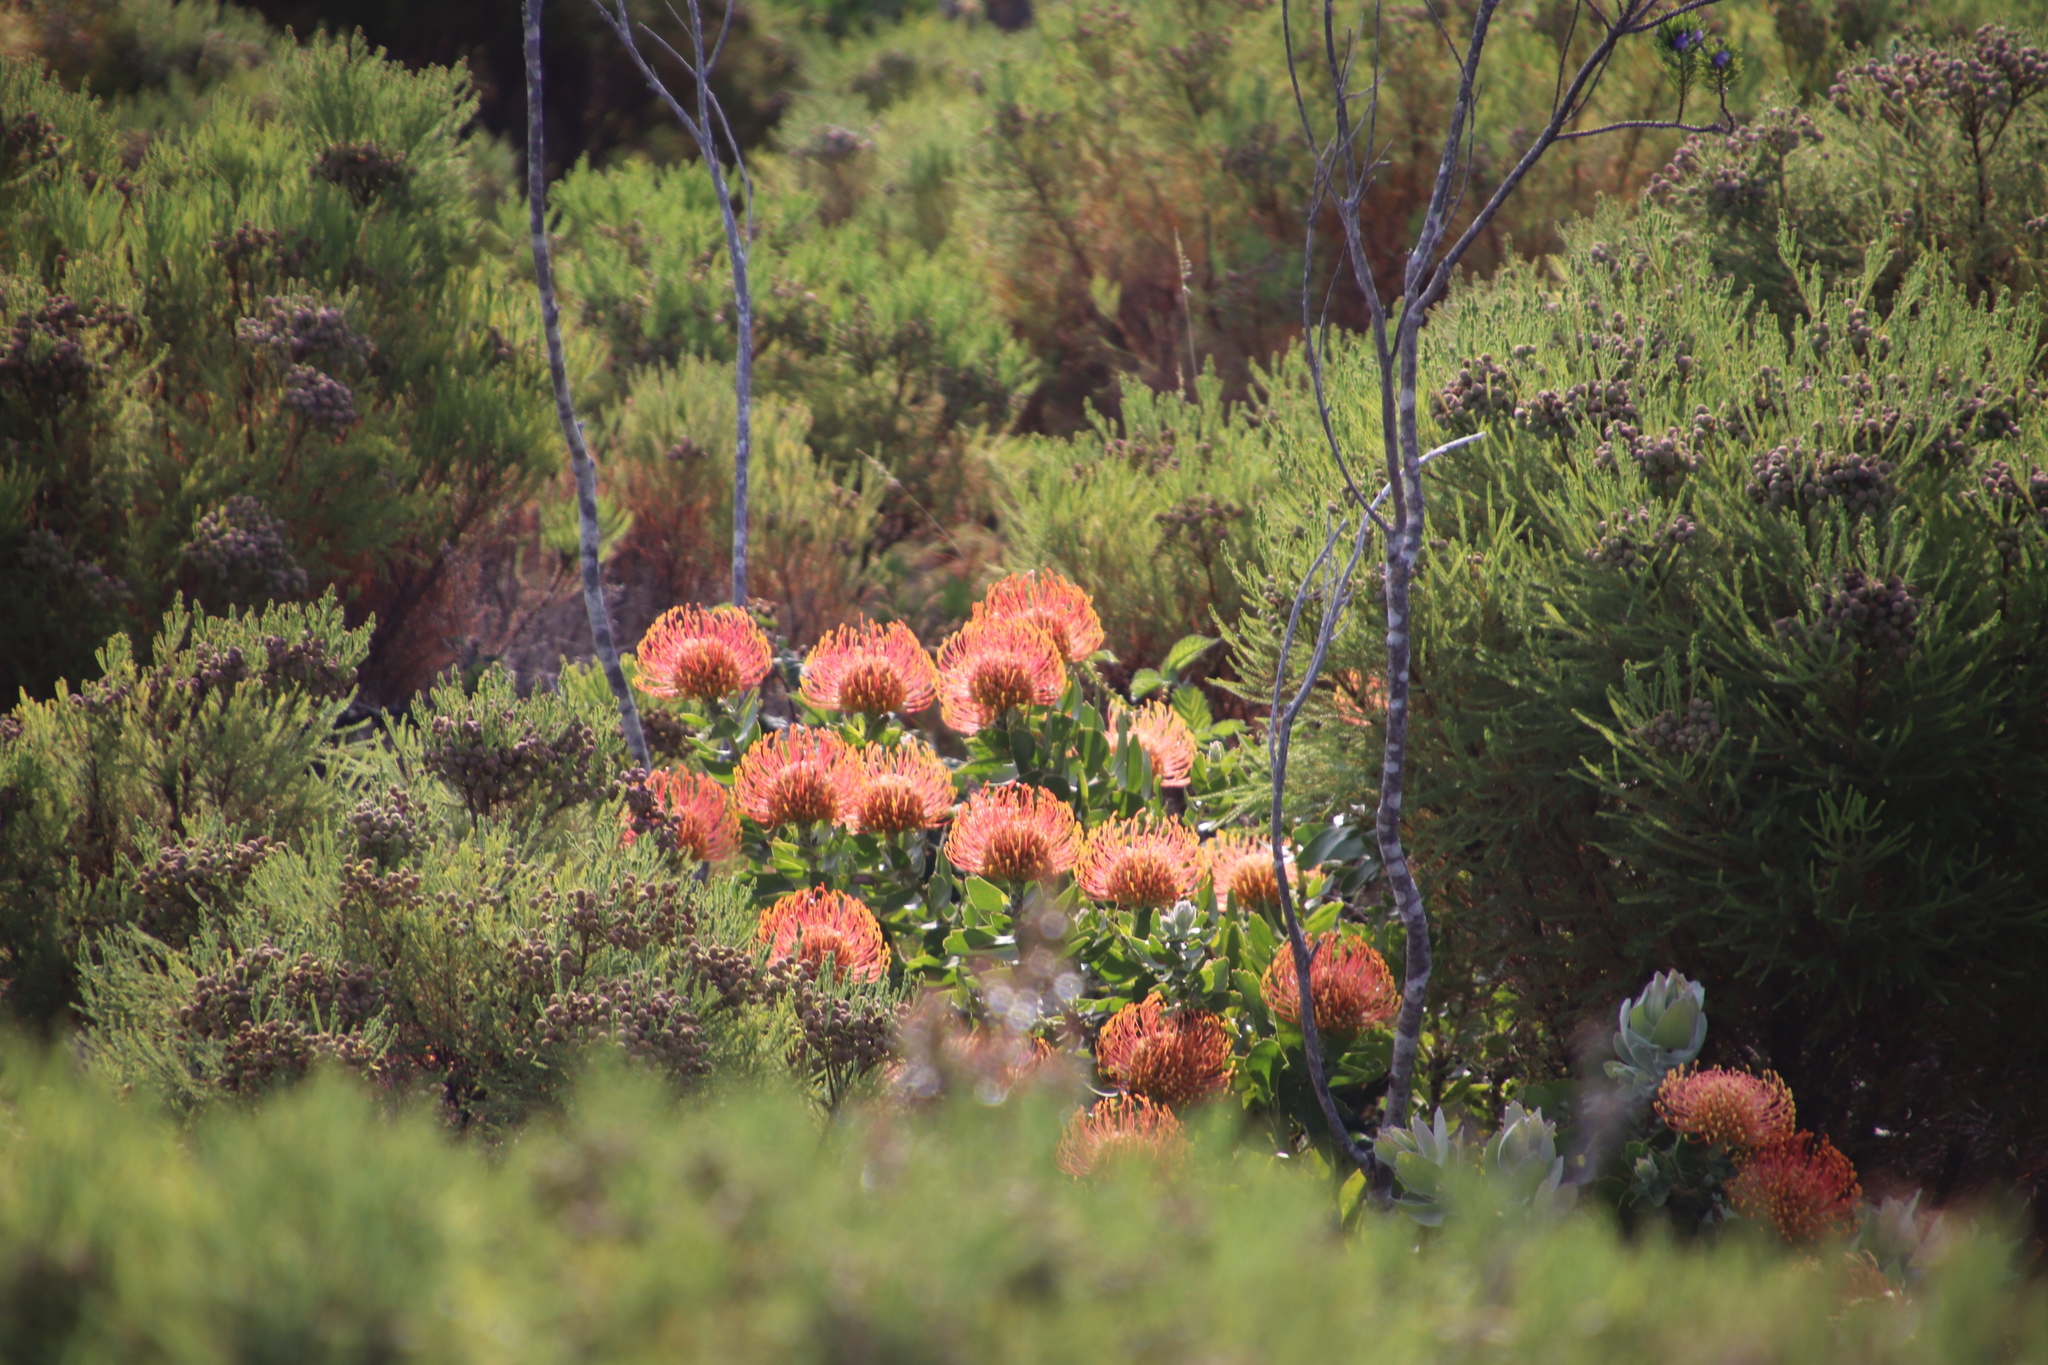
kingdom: Plantae
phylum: Tracheophyta
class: Magnoliopsida
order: Proteales
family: Proteaceae
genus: Leucospermum
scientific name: Leucospermum cordifolium
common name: Red pincushion-protea
